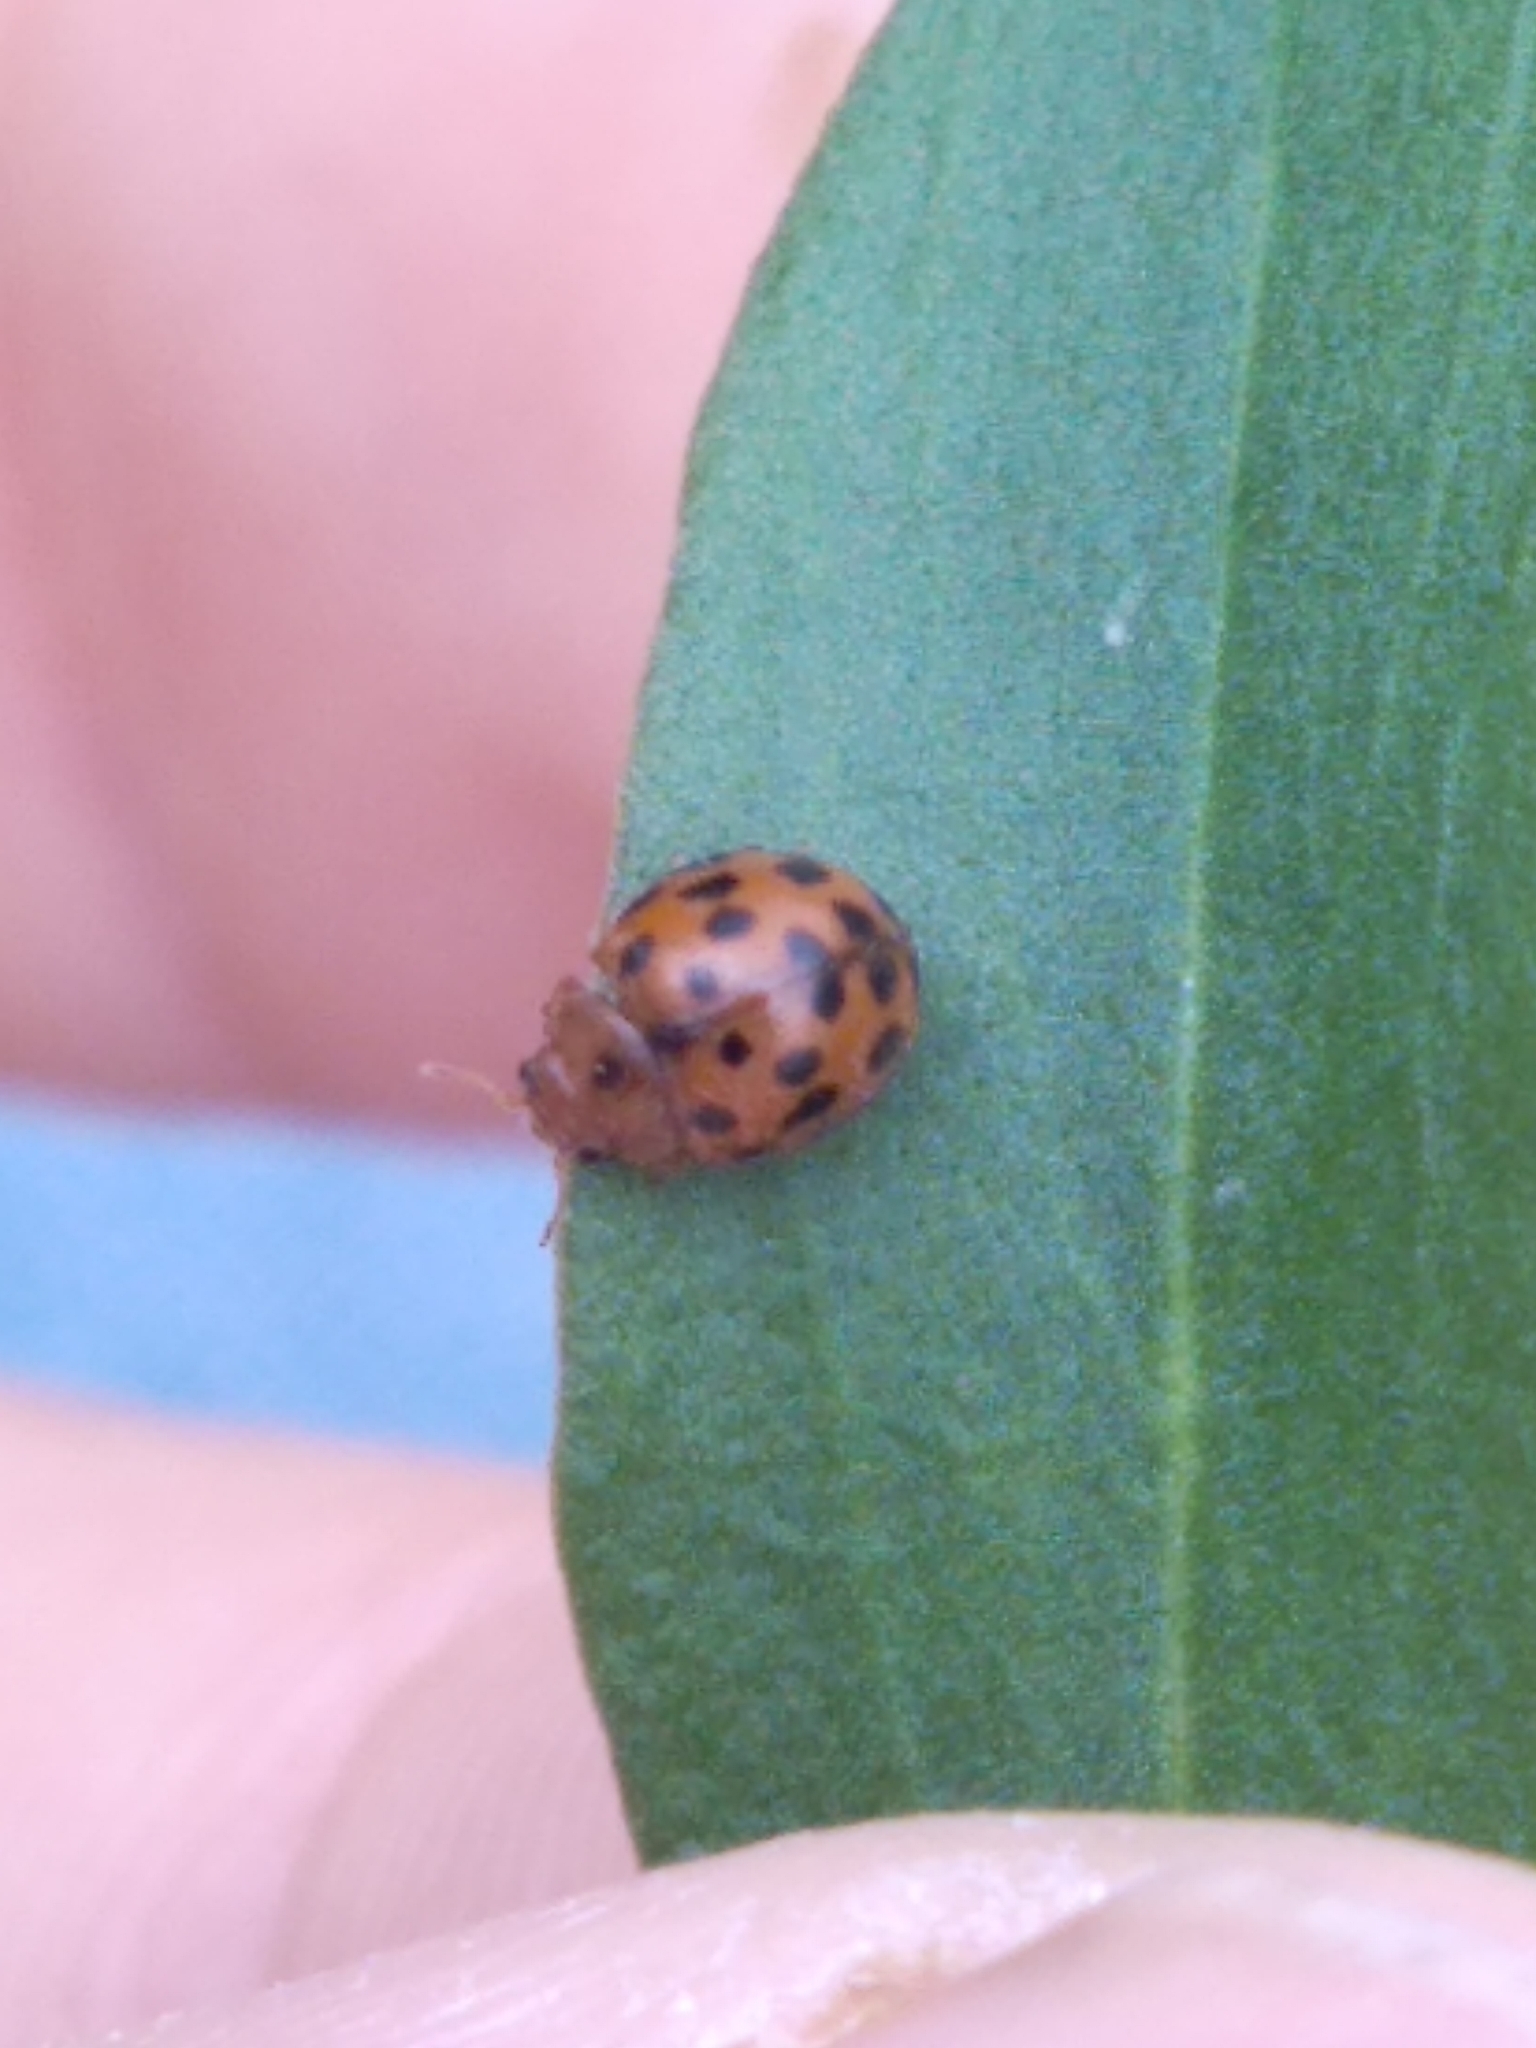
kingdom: Animalia
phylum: Arthropoda
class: Insecta
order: Coleoptera
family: Coccinellidae
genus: Subcoccinella
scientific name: Subcoccinella vigintiquatuorpunctata
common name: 24-spot ladybird
